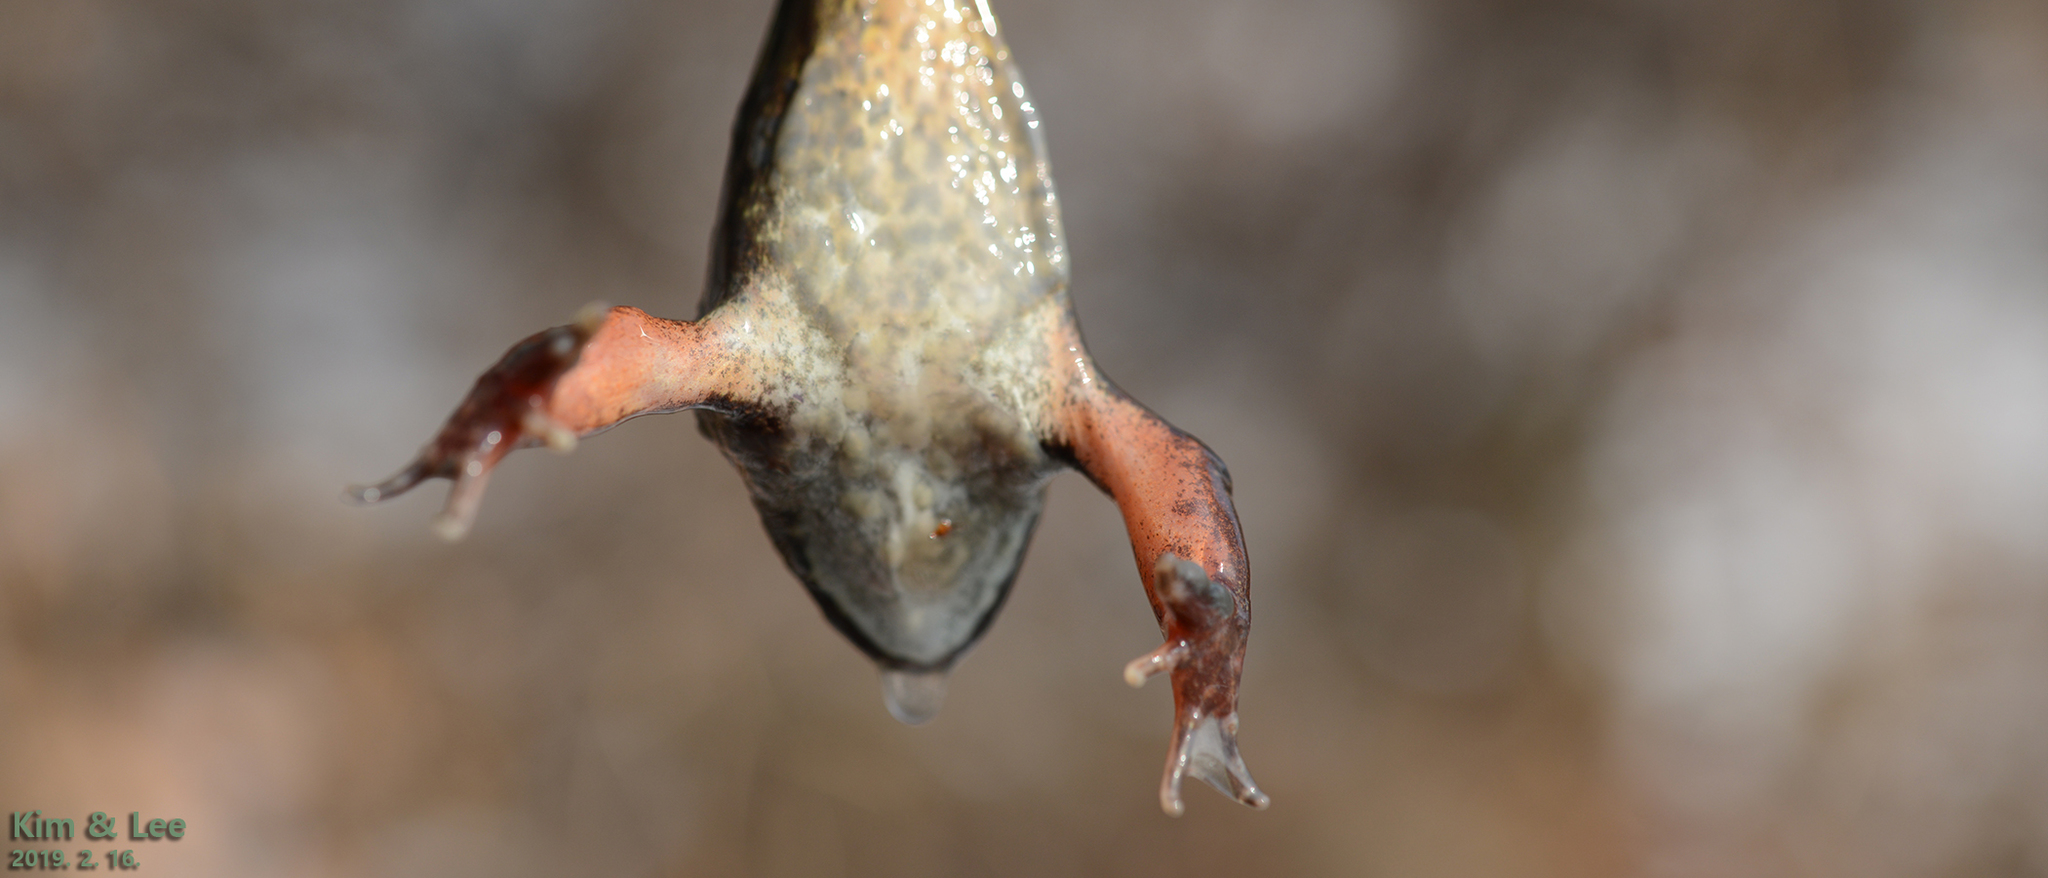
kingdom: Animalia
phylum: Chordata
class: Amphibia
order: Anura
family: Ranidae
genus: Rana
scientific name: Rana dybowskii
